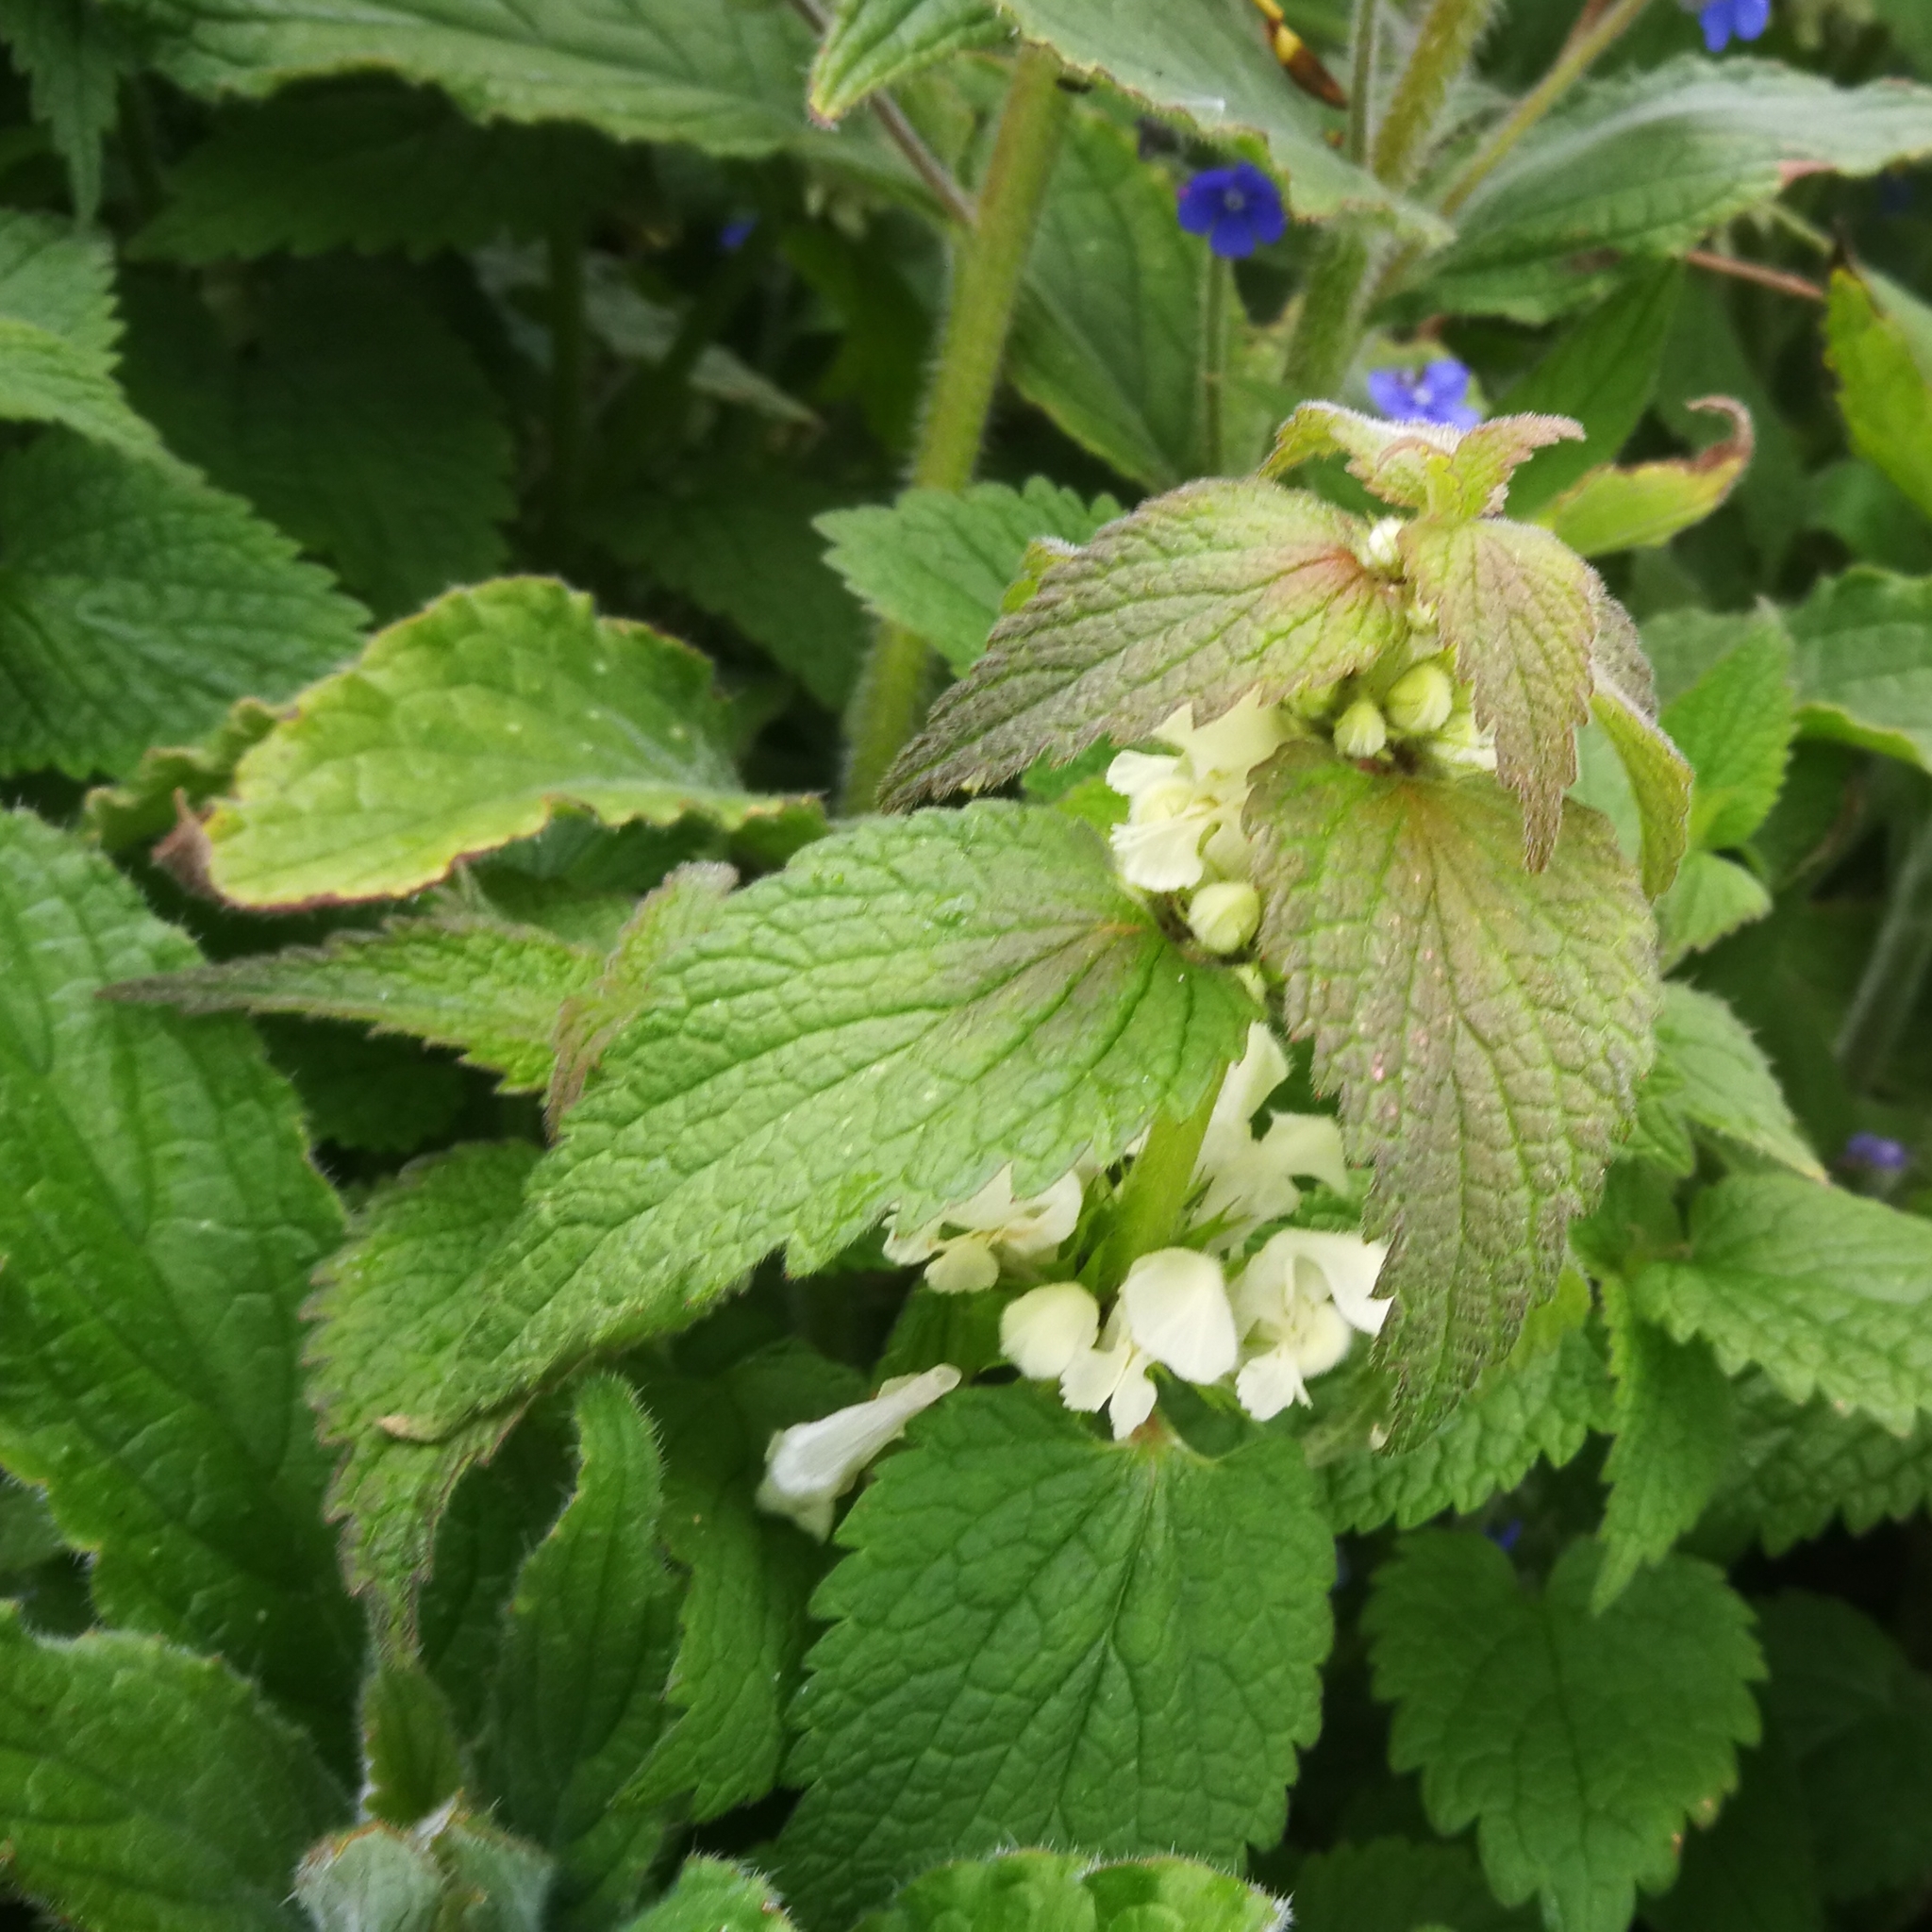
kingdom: Plantae
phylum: Tracheophyta
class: Magnoliopsida
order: Lamiales
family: Lamiaceae
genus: Lamium
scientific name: Lamium album
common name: White dead-nettle
